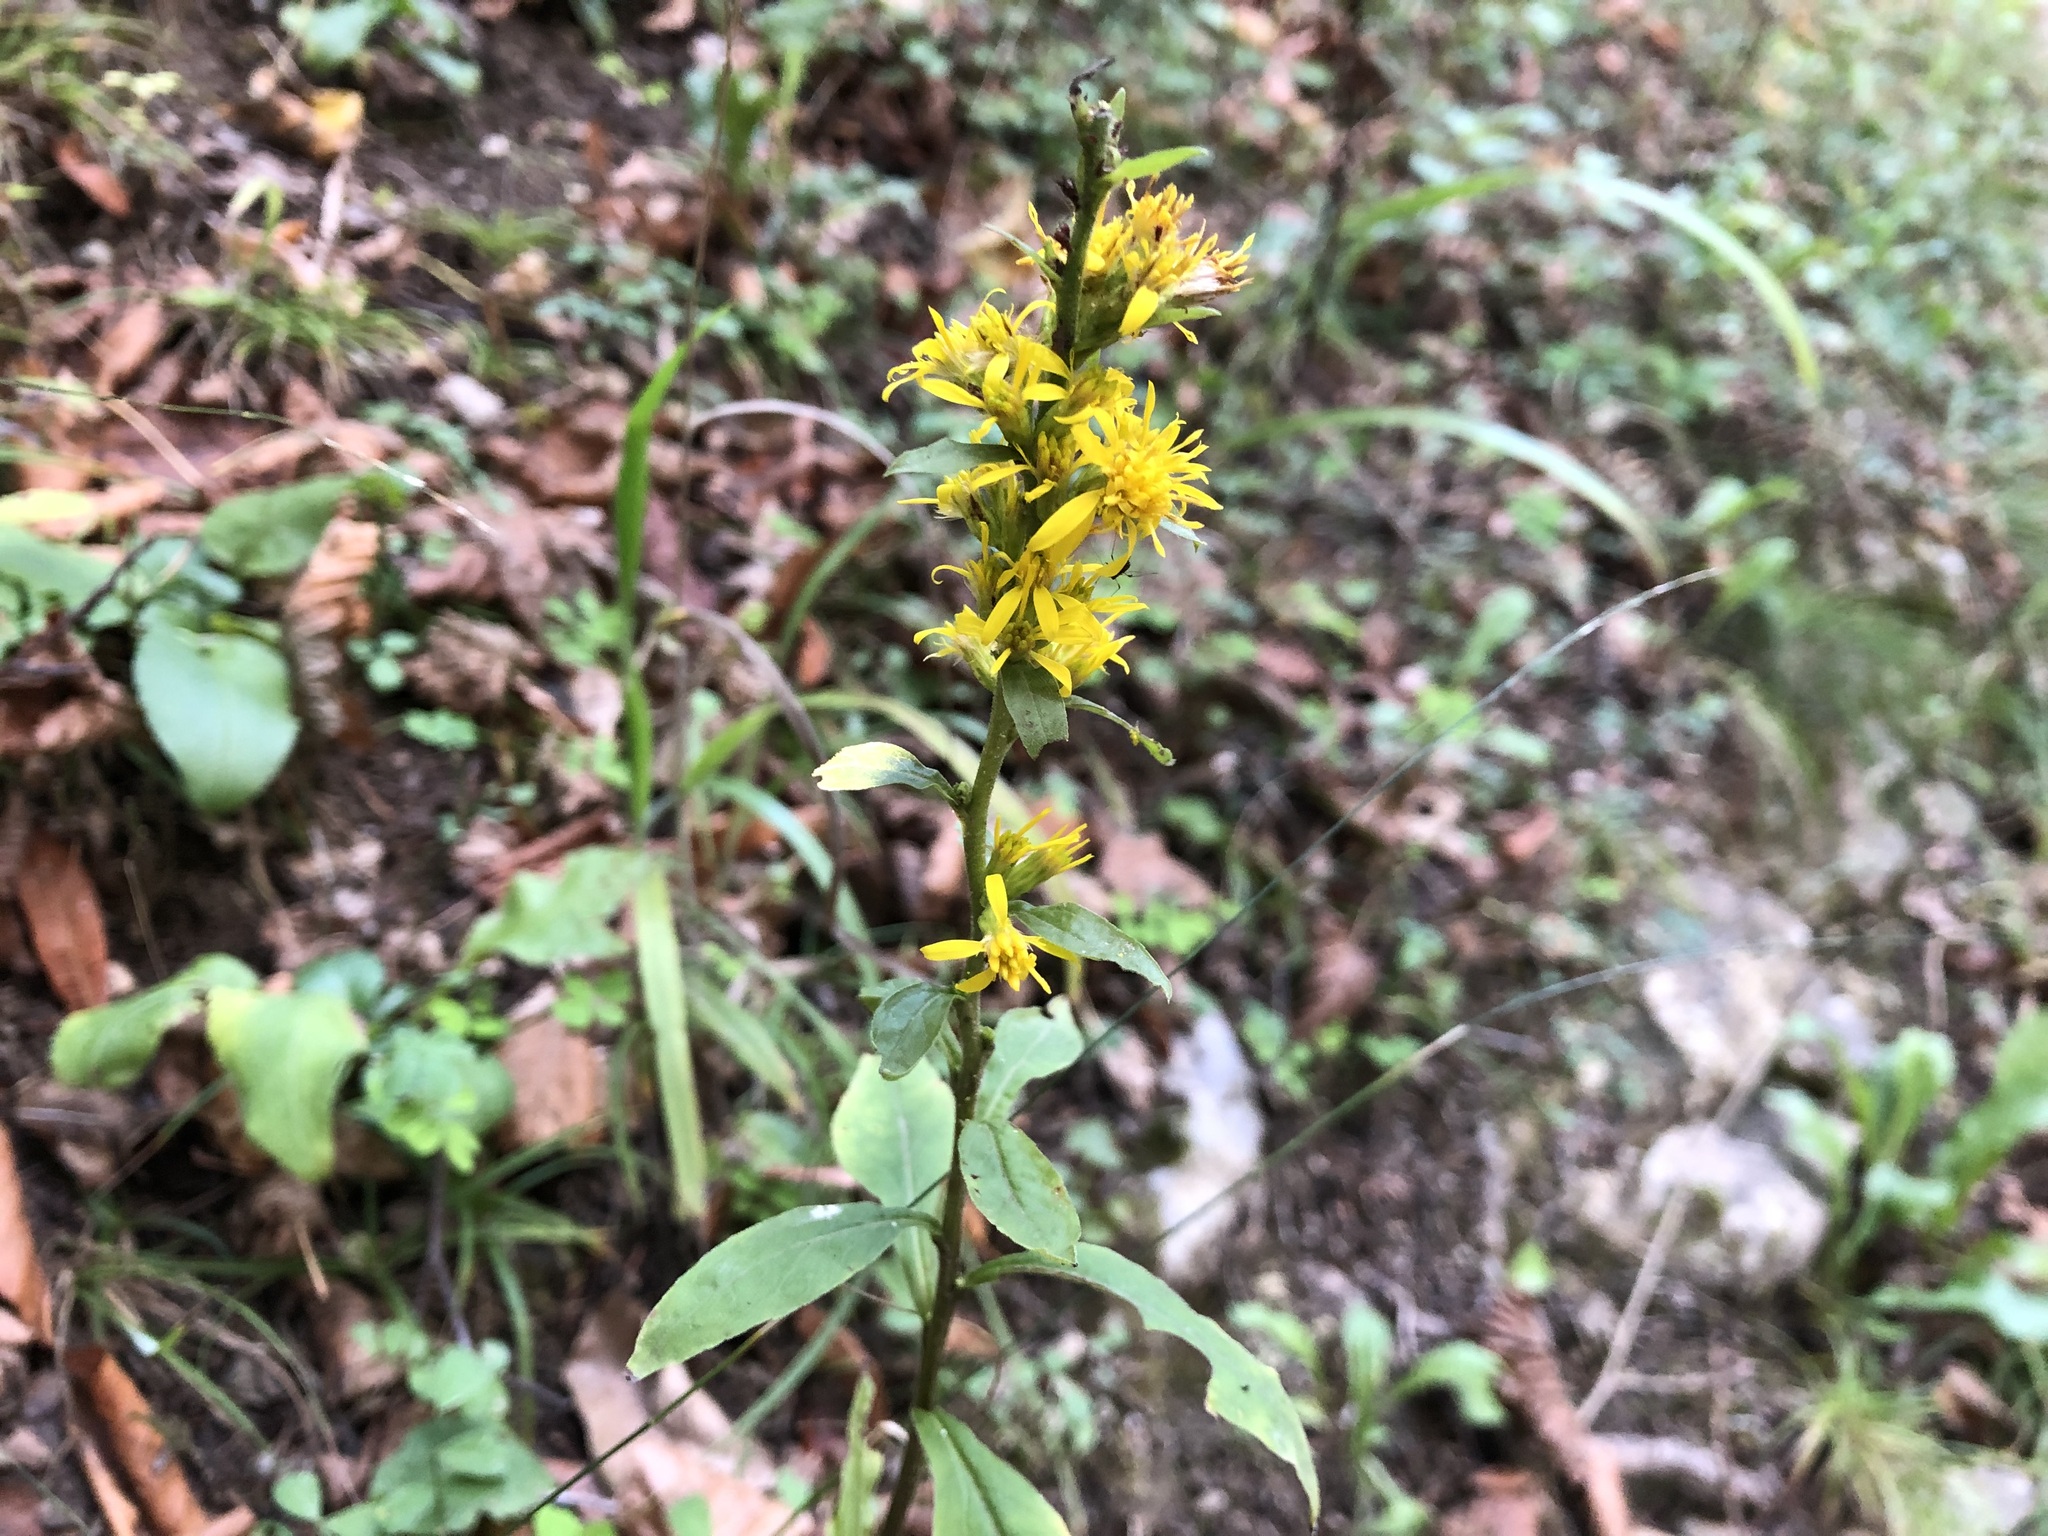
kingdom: Plantae
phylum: Tracheophyta
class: Magnoliopsida
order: Asterales
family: Asteraceae
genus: Solidago
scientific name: Solidago virgaurea
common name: Goldenrod
